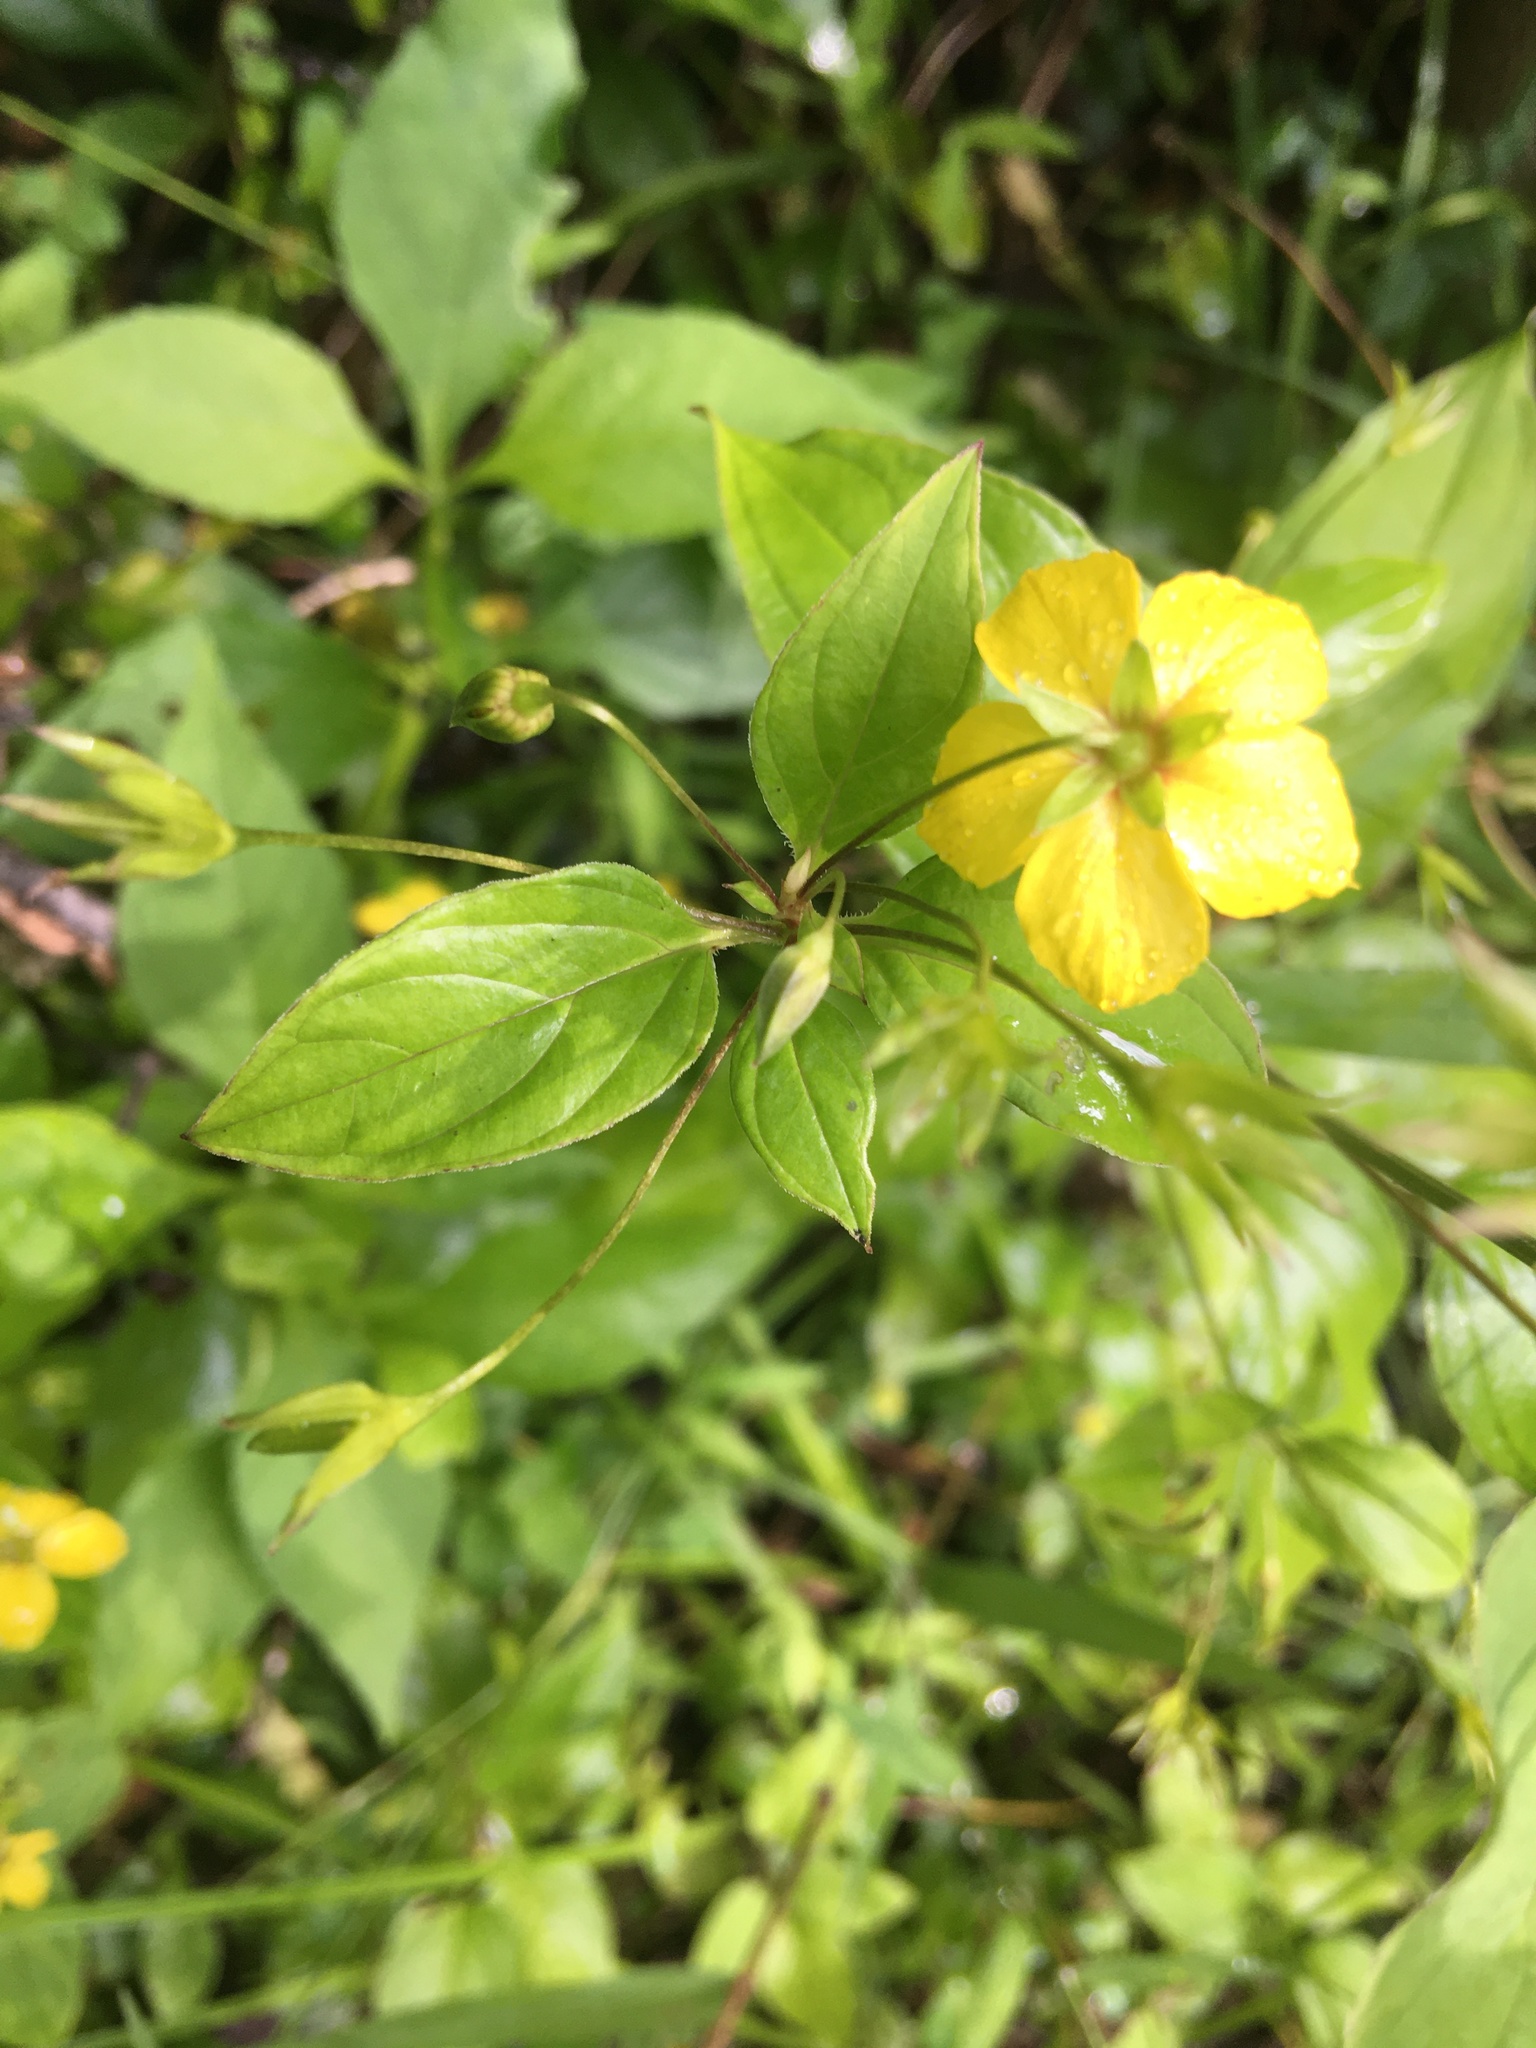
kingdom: Plantae
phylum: Tracheophyta
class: Magnoliopsida
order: Ericales
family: Primulaceae
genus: Lysimachia
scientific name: Lysimachia ciliata
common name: Fringed loosestrife
